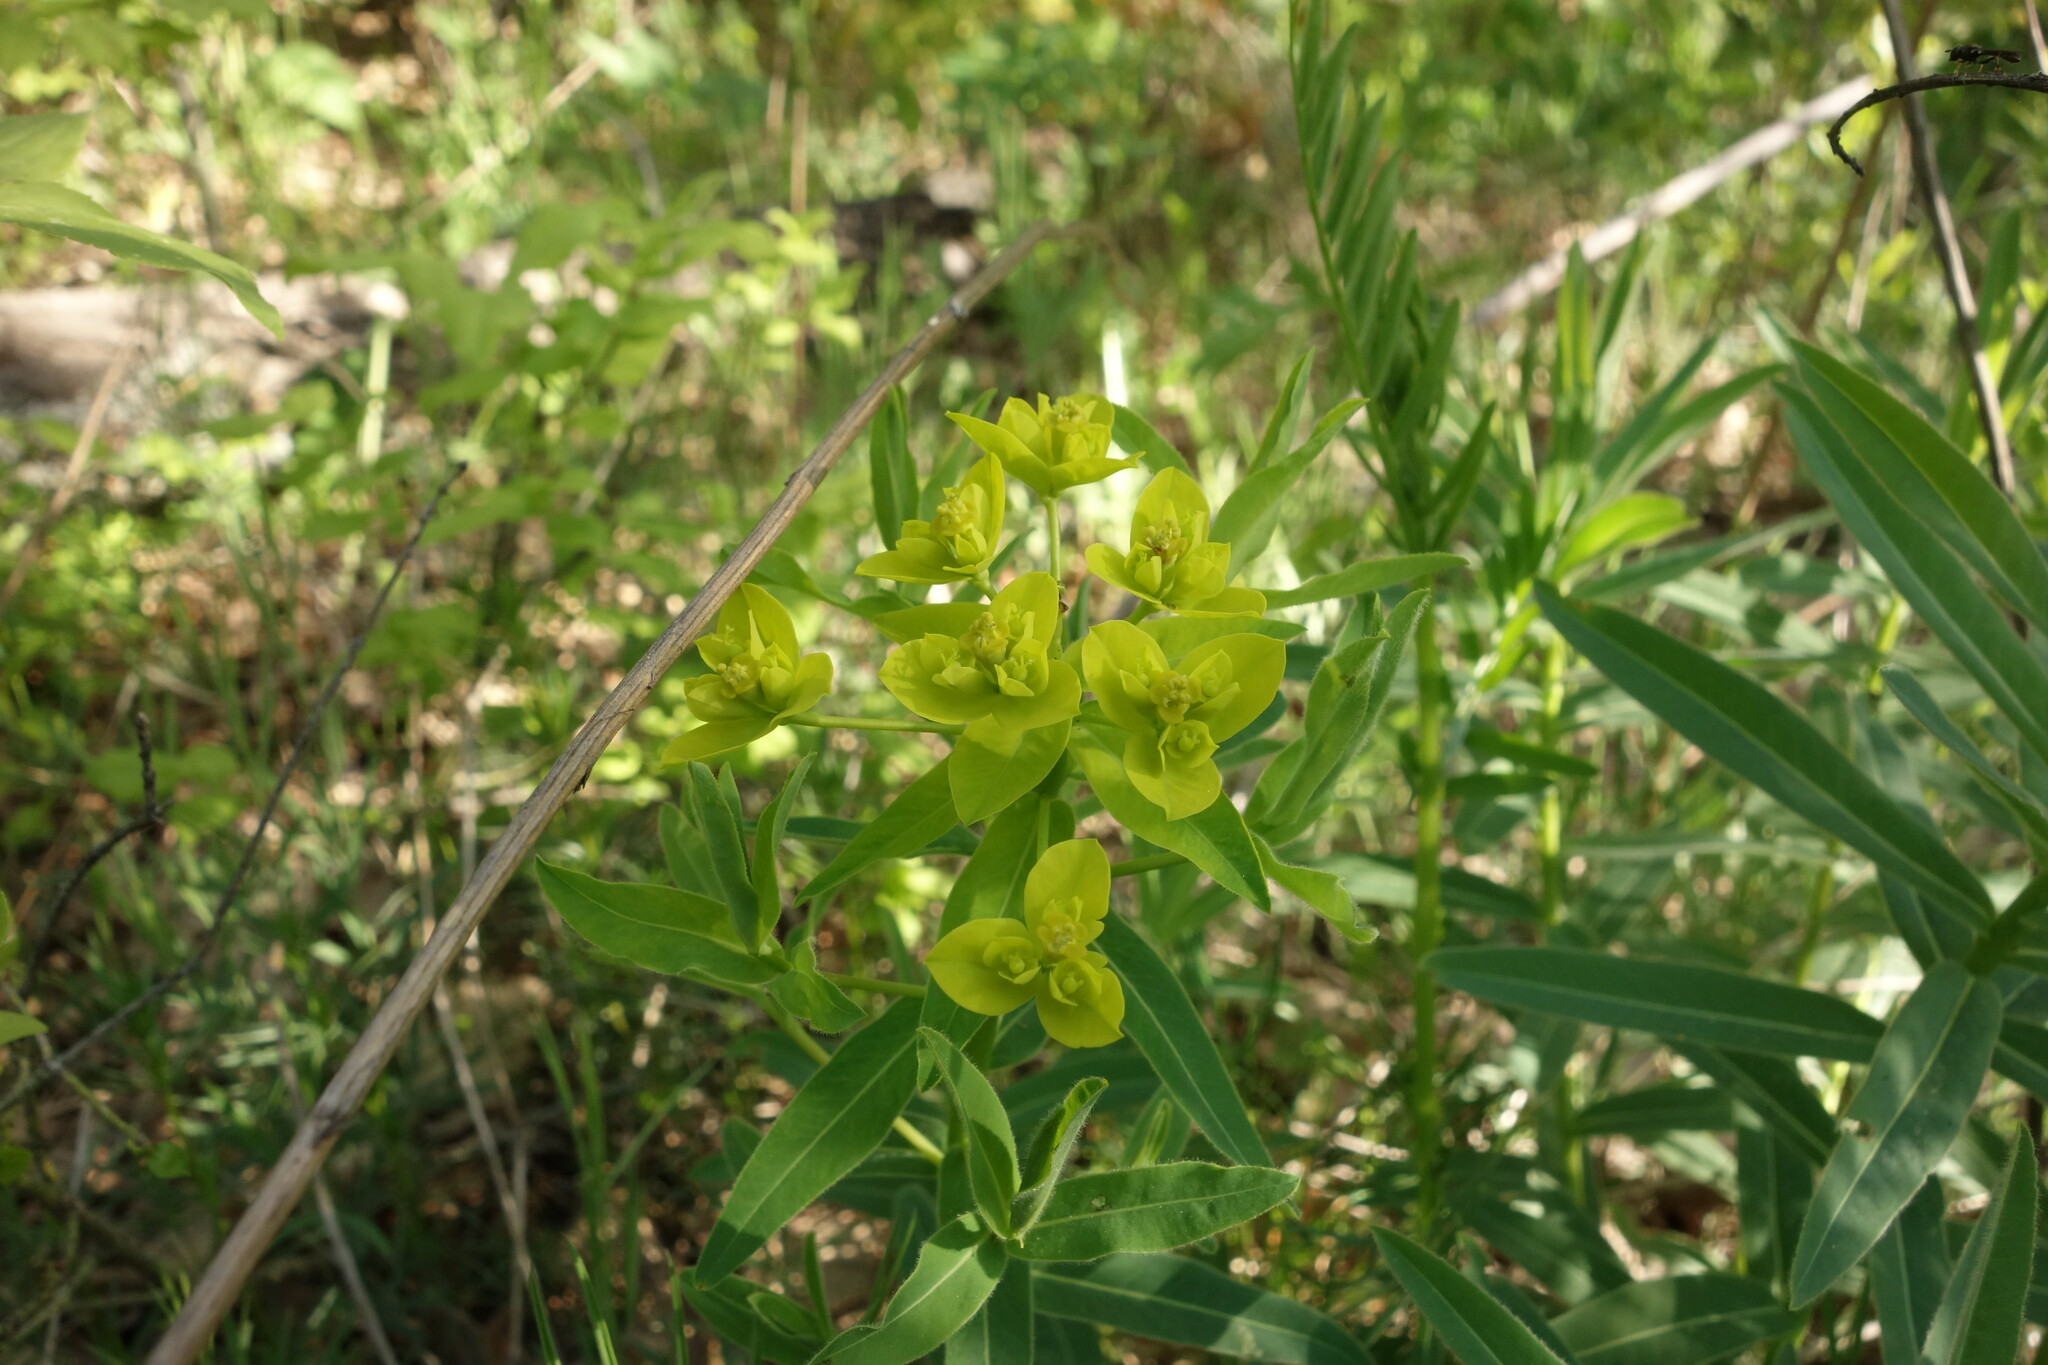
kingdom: Plantae
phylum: Tracheophyta
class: Magnoliopsida
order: Malpighiales
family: Euphorbiaceae
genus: Euphorbia
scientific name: Euphorbia semivillosa
